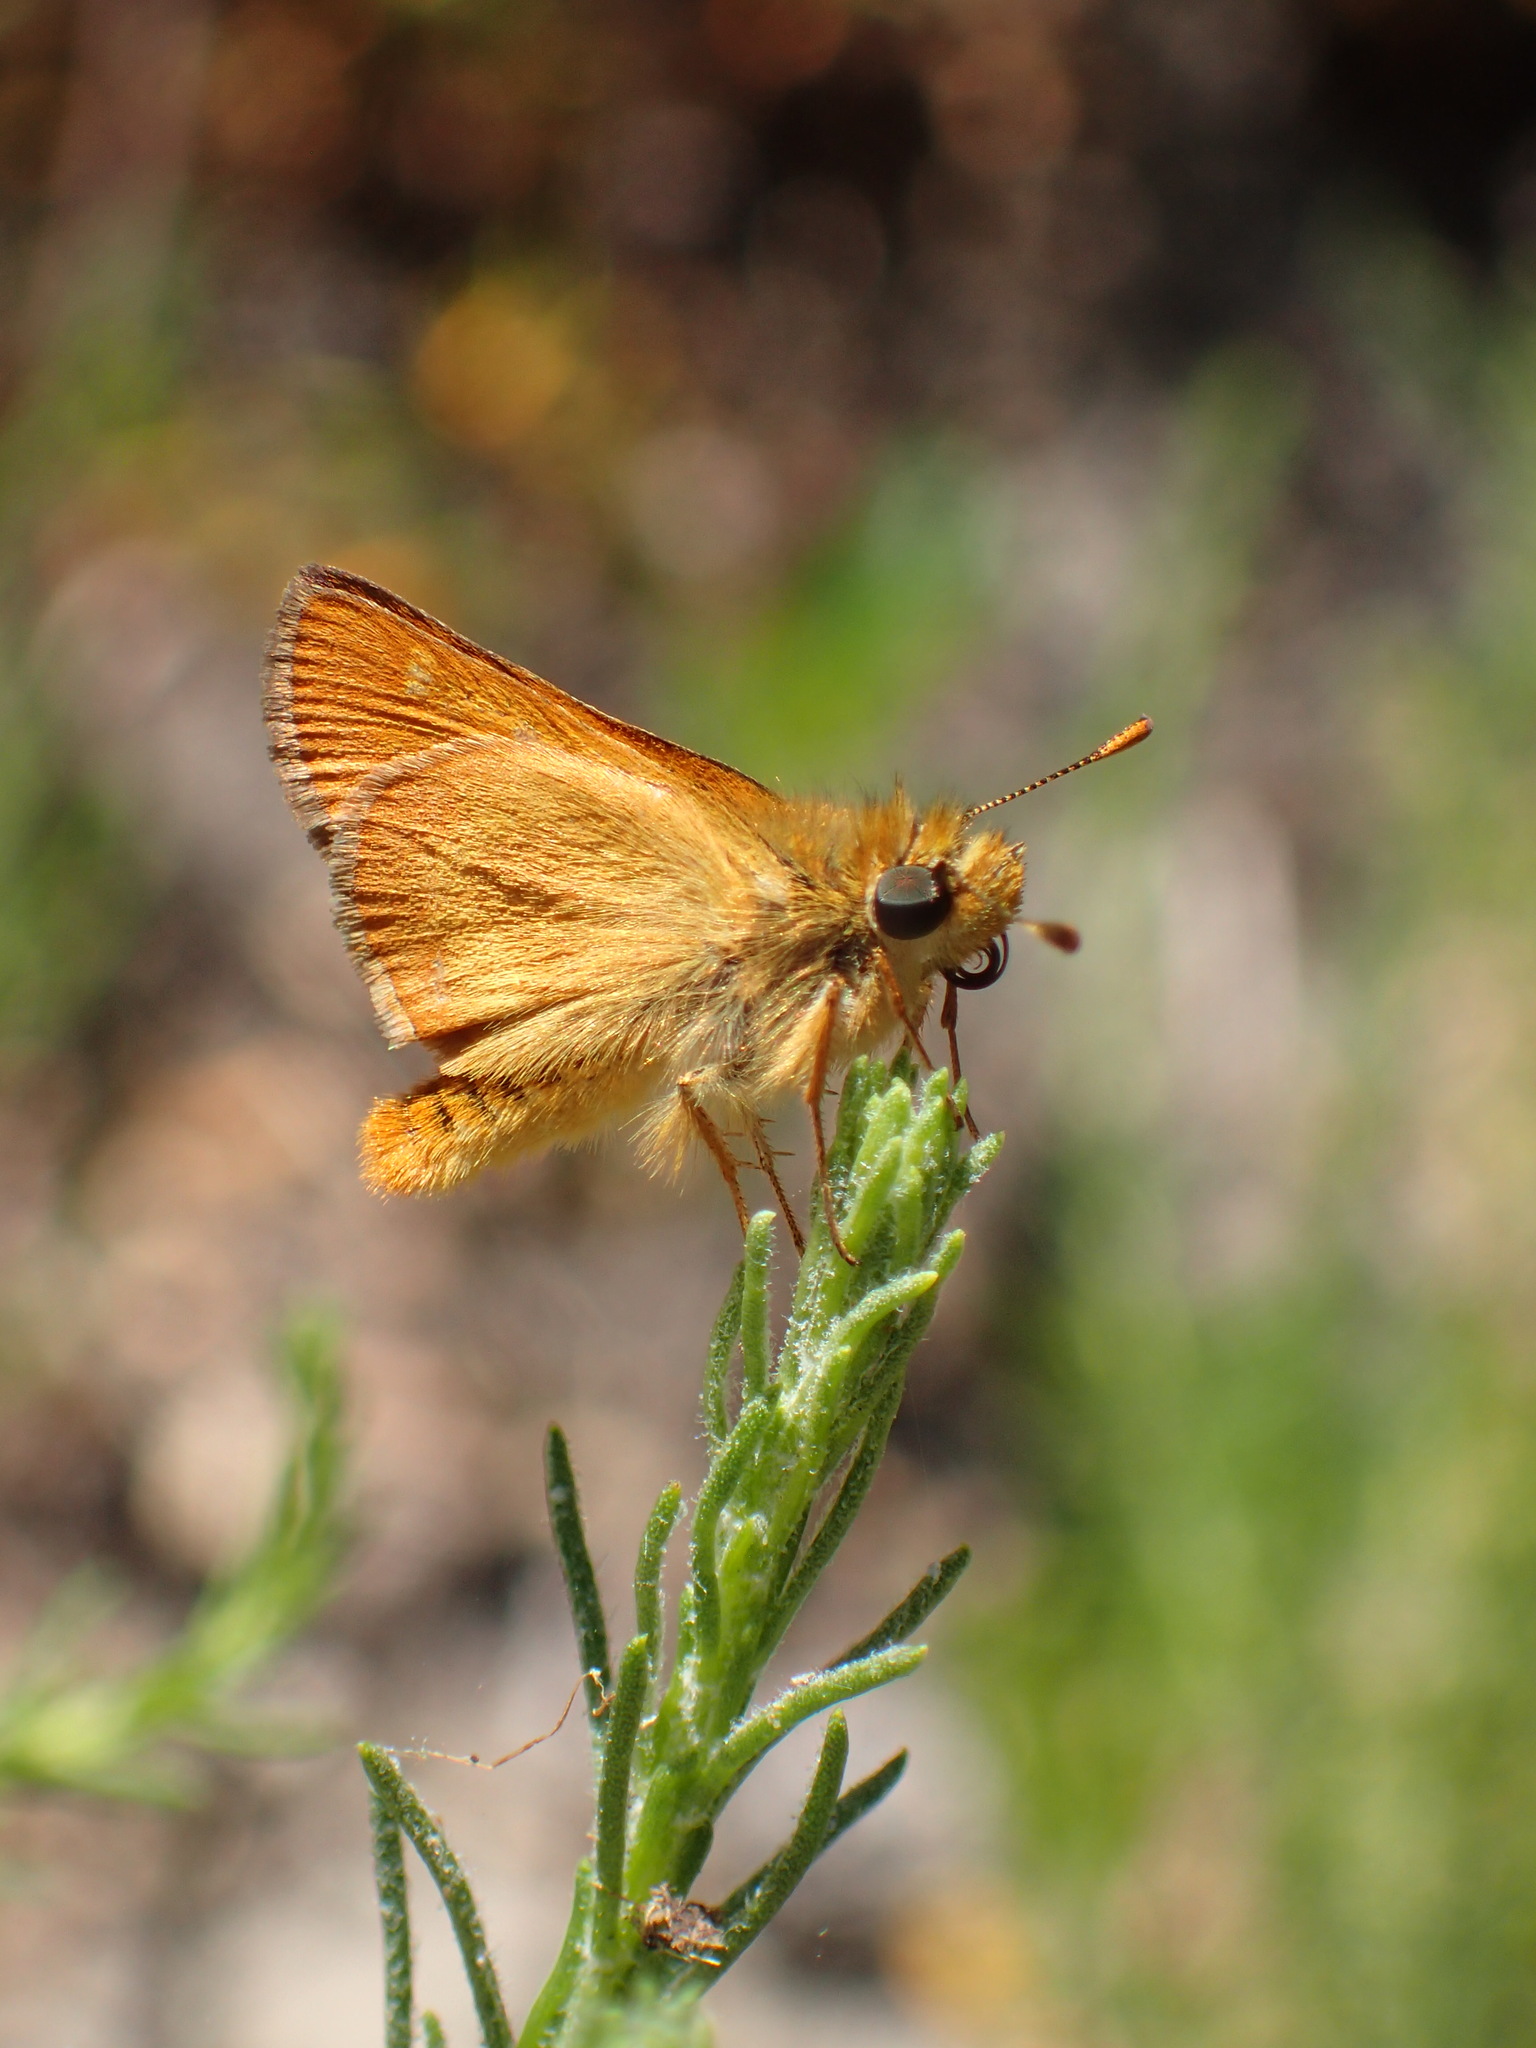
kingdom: Animalia
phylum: Arthropoda
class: Insecta
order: Lepidoptera
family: Hesperiidae
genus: Ochlodes
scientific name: Ochlodes agricola
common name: Rural skipper
